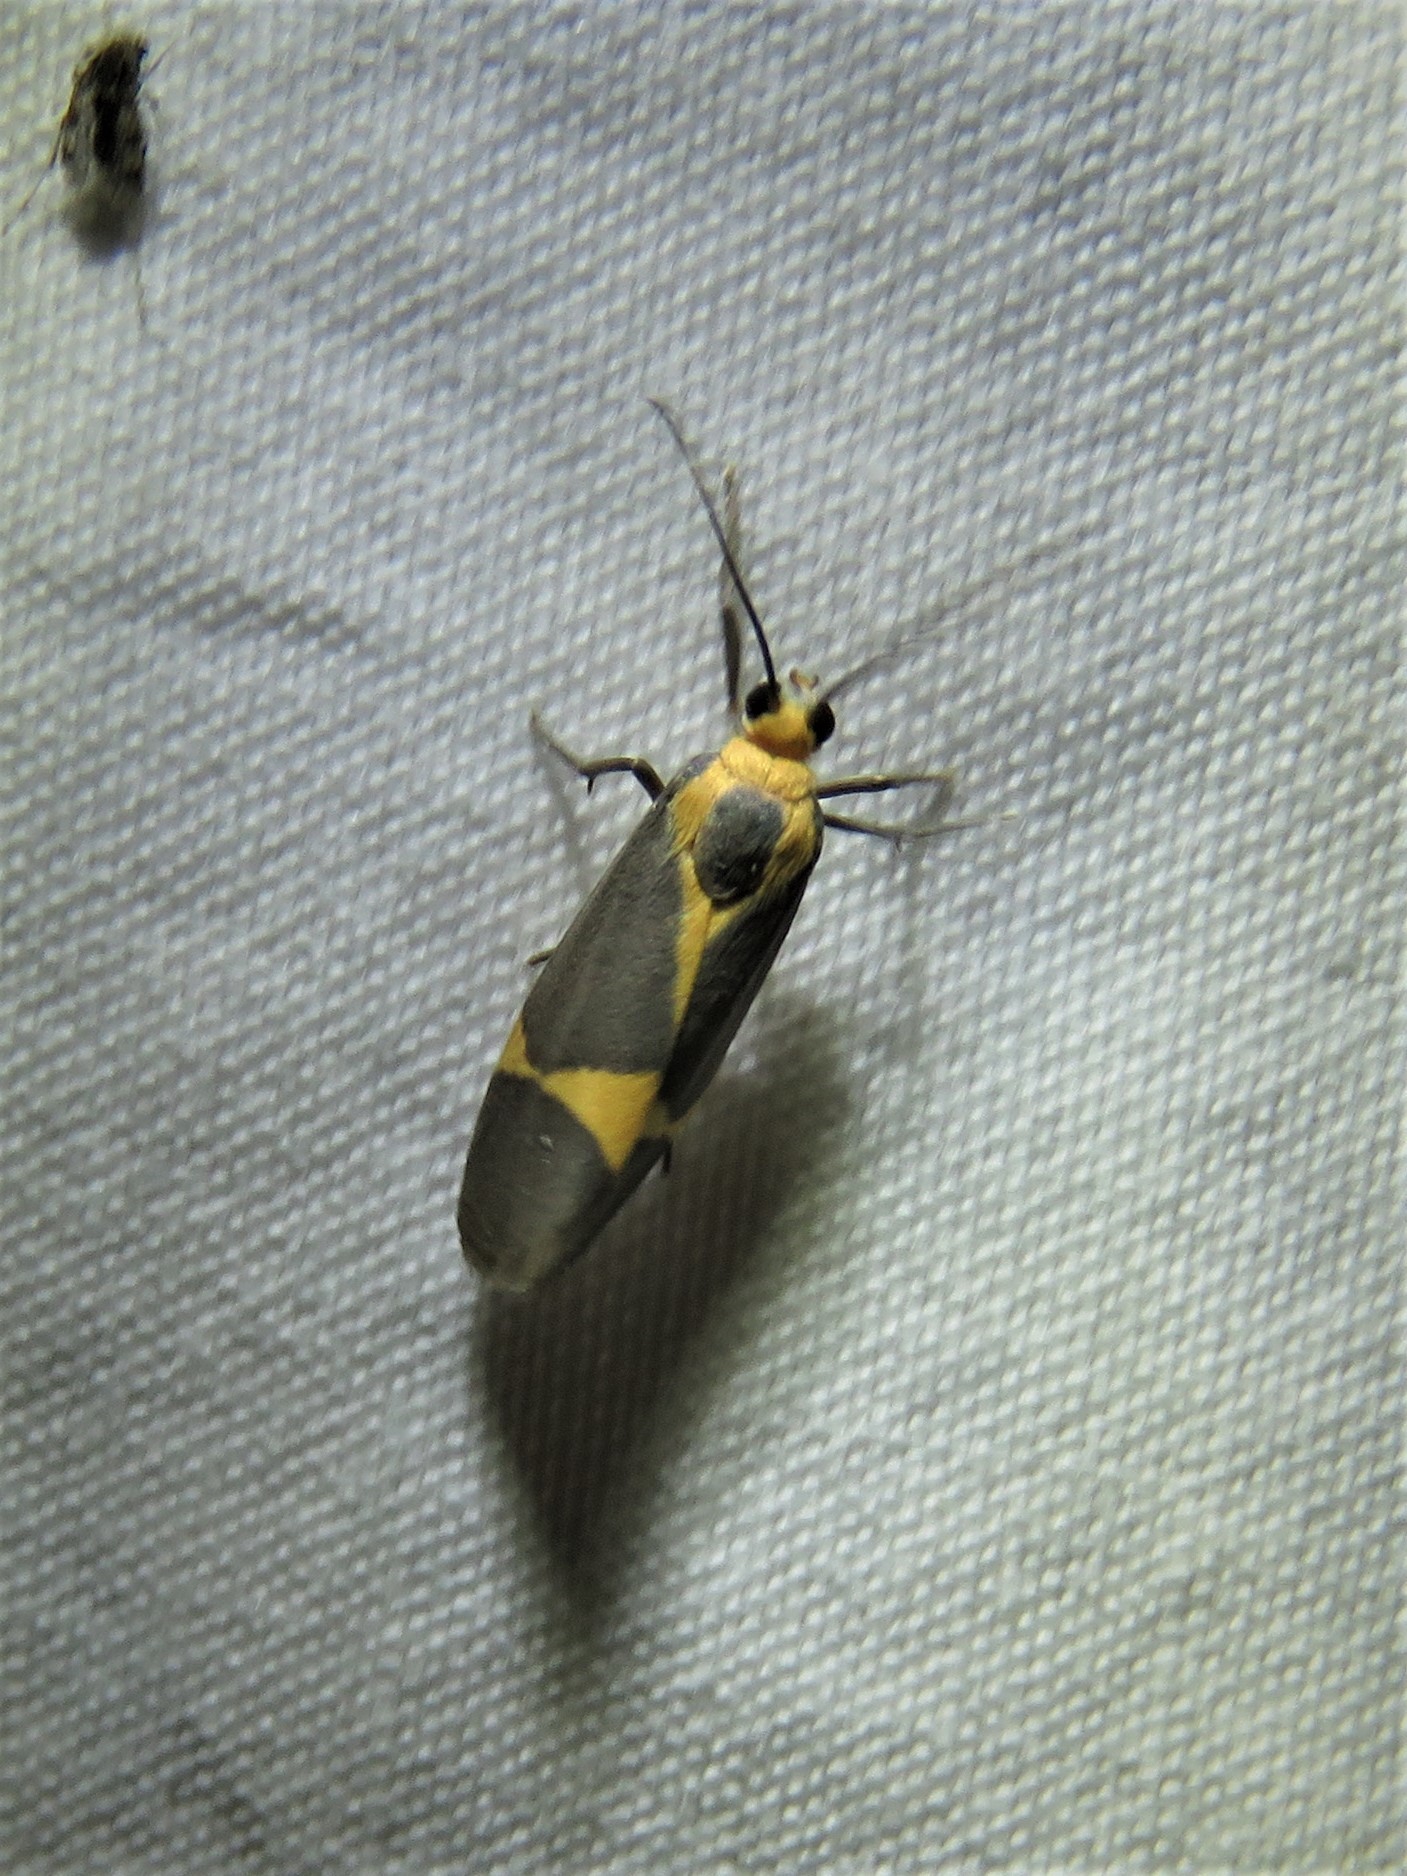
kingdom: Animalia
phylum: Arthropoda
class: Insecta
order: Lepidoptera
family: Erebidae
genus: Cisthene
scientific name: Cisthene tenuifascia
